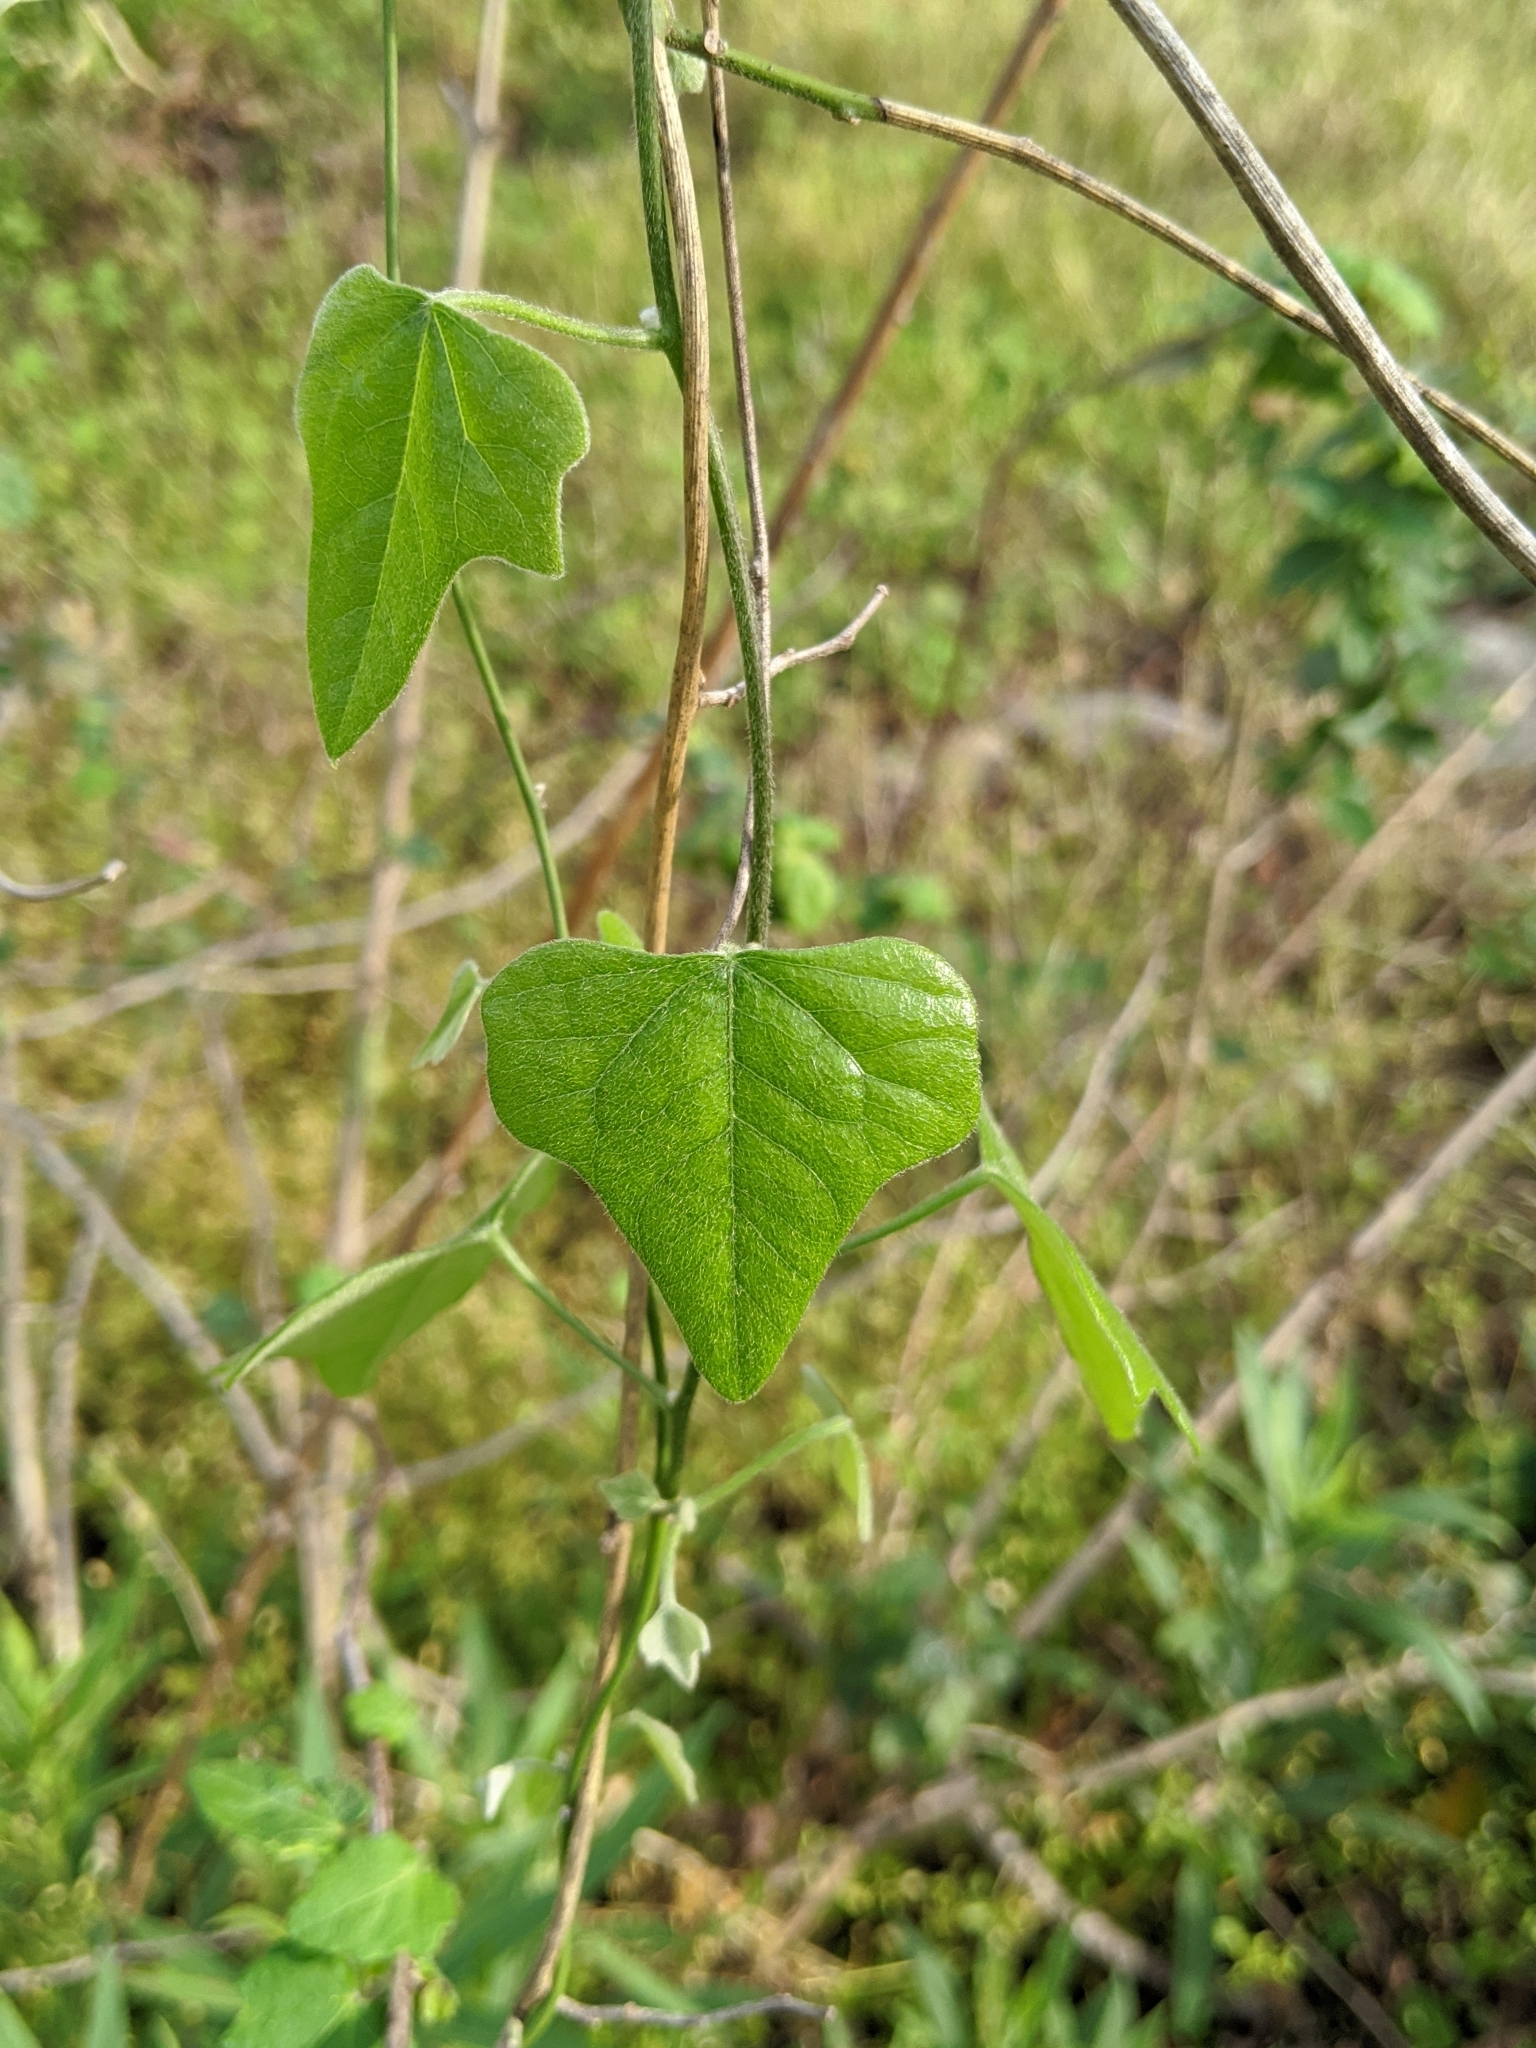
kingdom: Plantae
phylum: Tracheophyta
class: Magnoliopsida
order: Ranunculales
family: Menispermaceae
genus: Cocculus
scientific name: Cocculus carolinus
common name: Carolina moonseed
